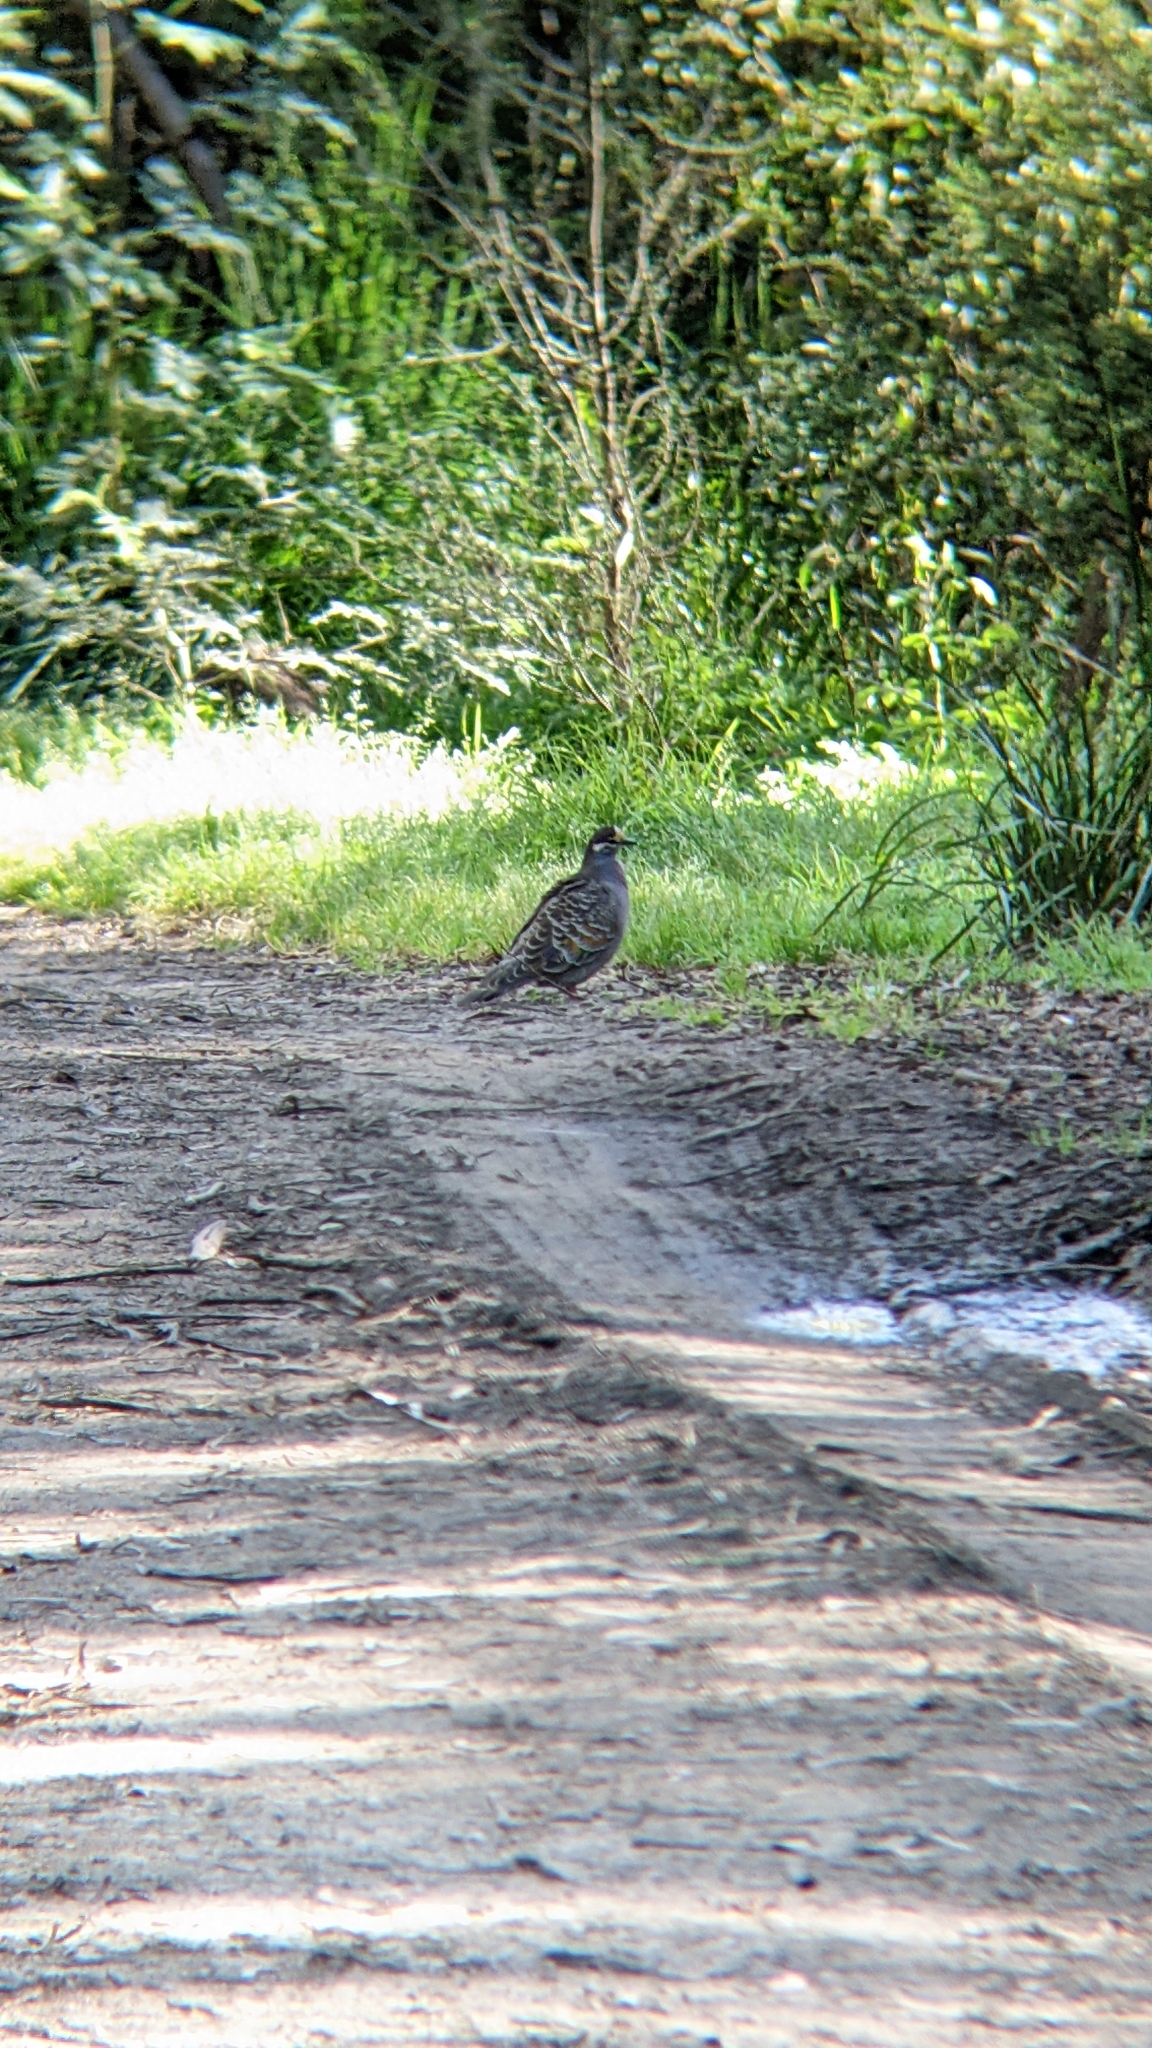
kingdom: Animalia
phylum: Chordata
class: Aves
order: Columbiformes
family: Columbidae
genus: Phaps
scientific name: Phaps chalcoptera
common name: Common bronzewing
